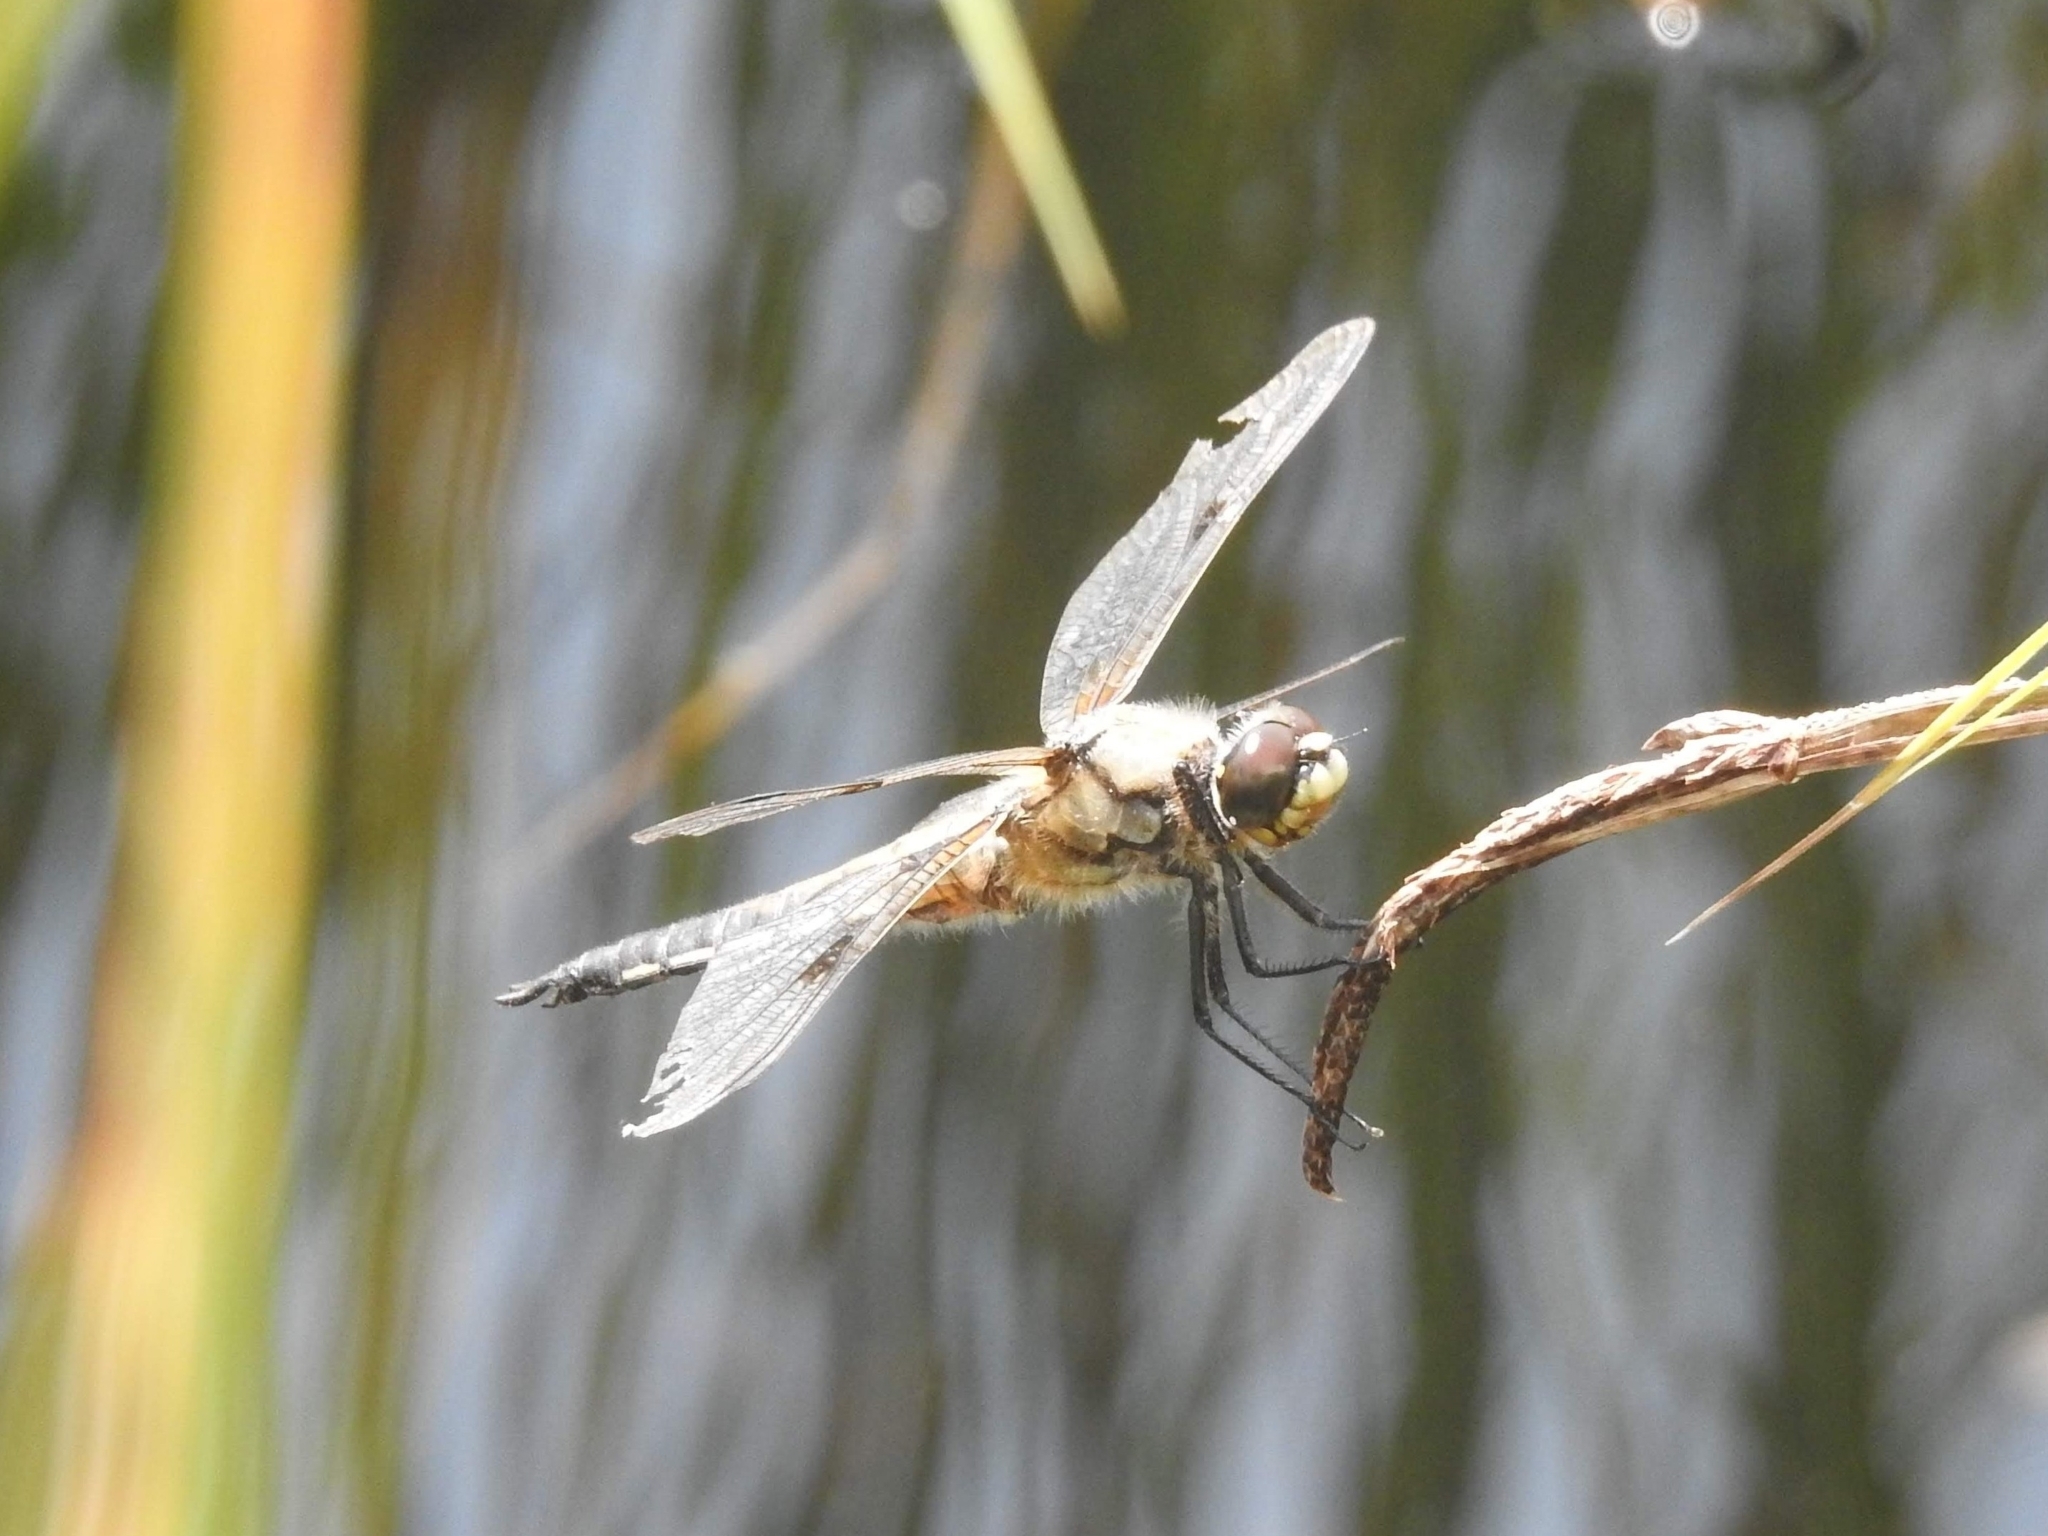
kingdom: Animalia
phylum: Arthropoda
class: Insecta
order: Odonata
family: Libellulidae
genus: Libellula
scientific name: Libellula quadrimaculata
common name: Four-spotted chaser
